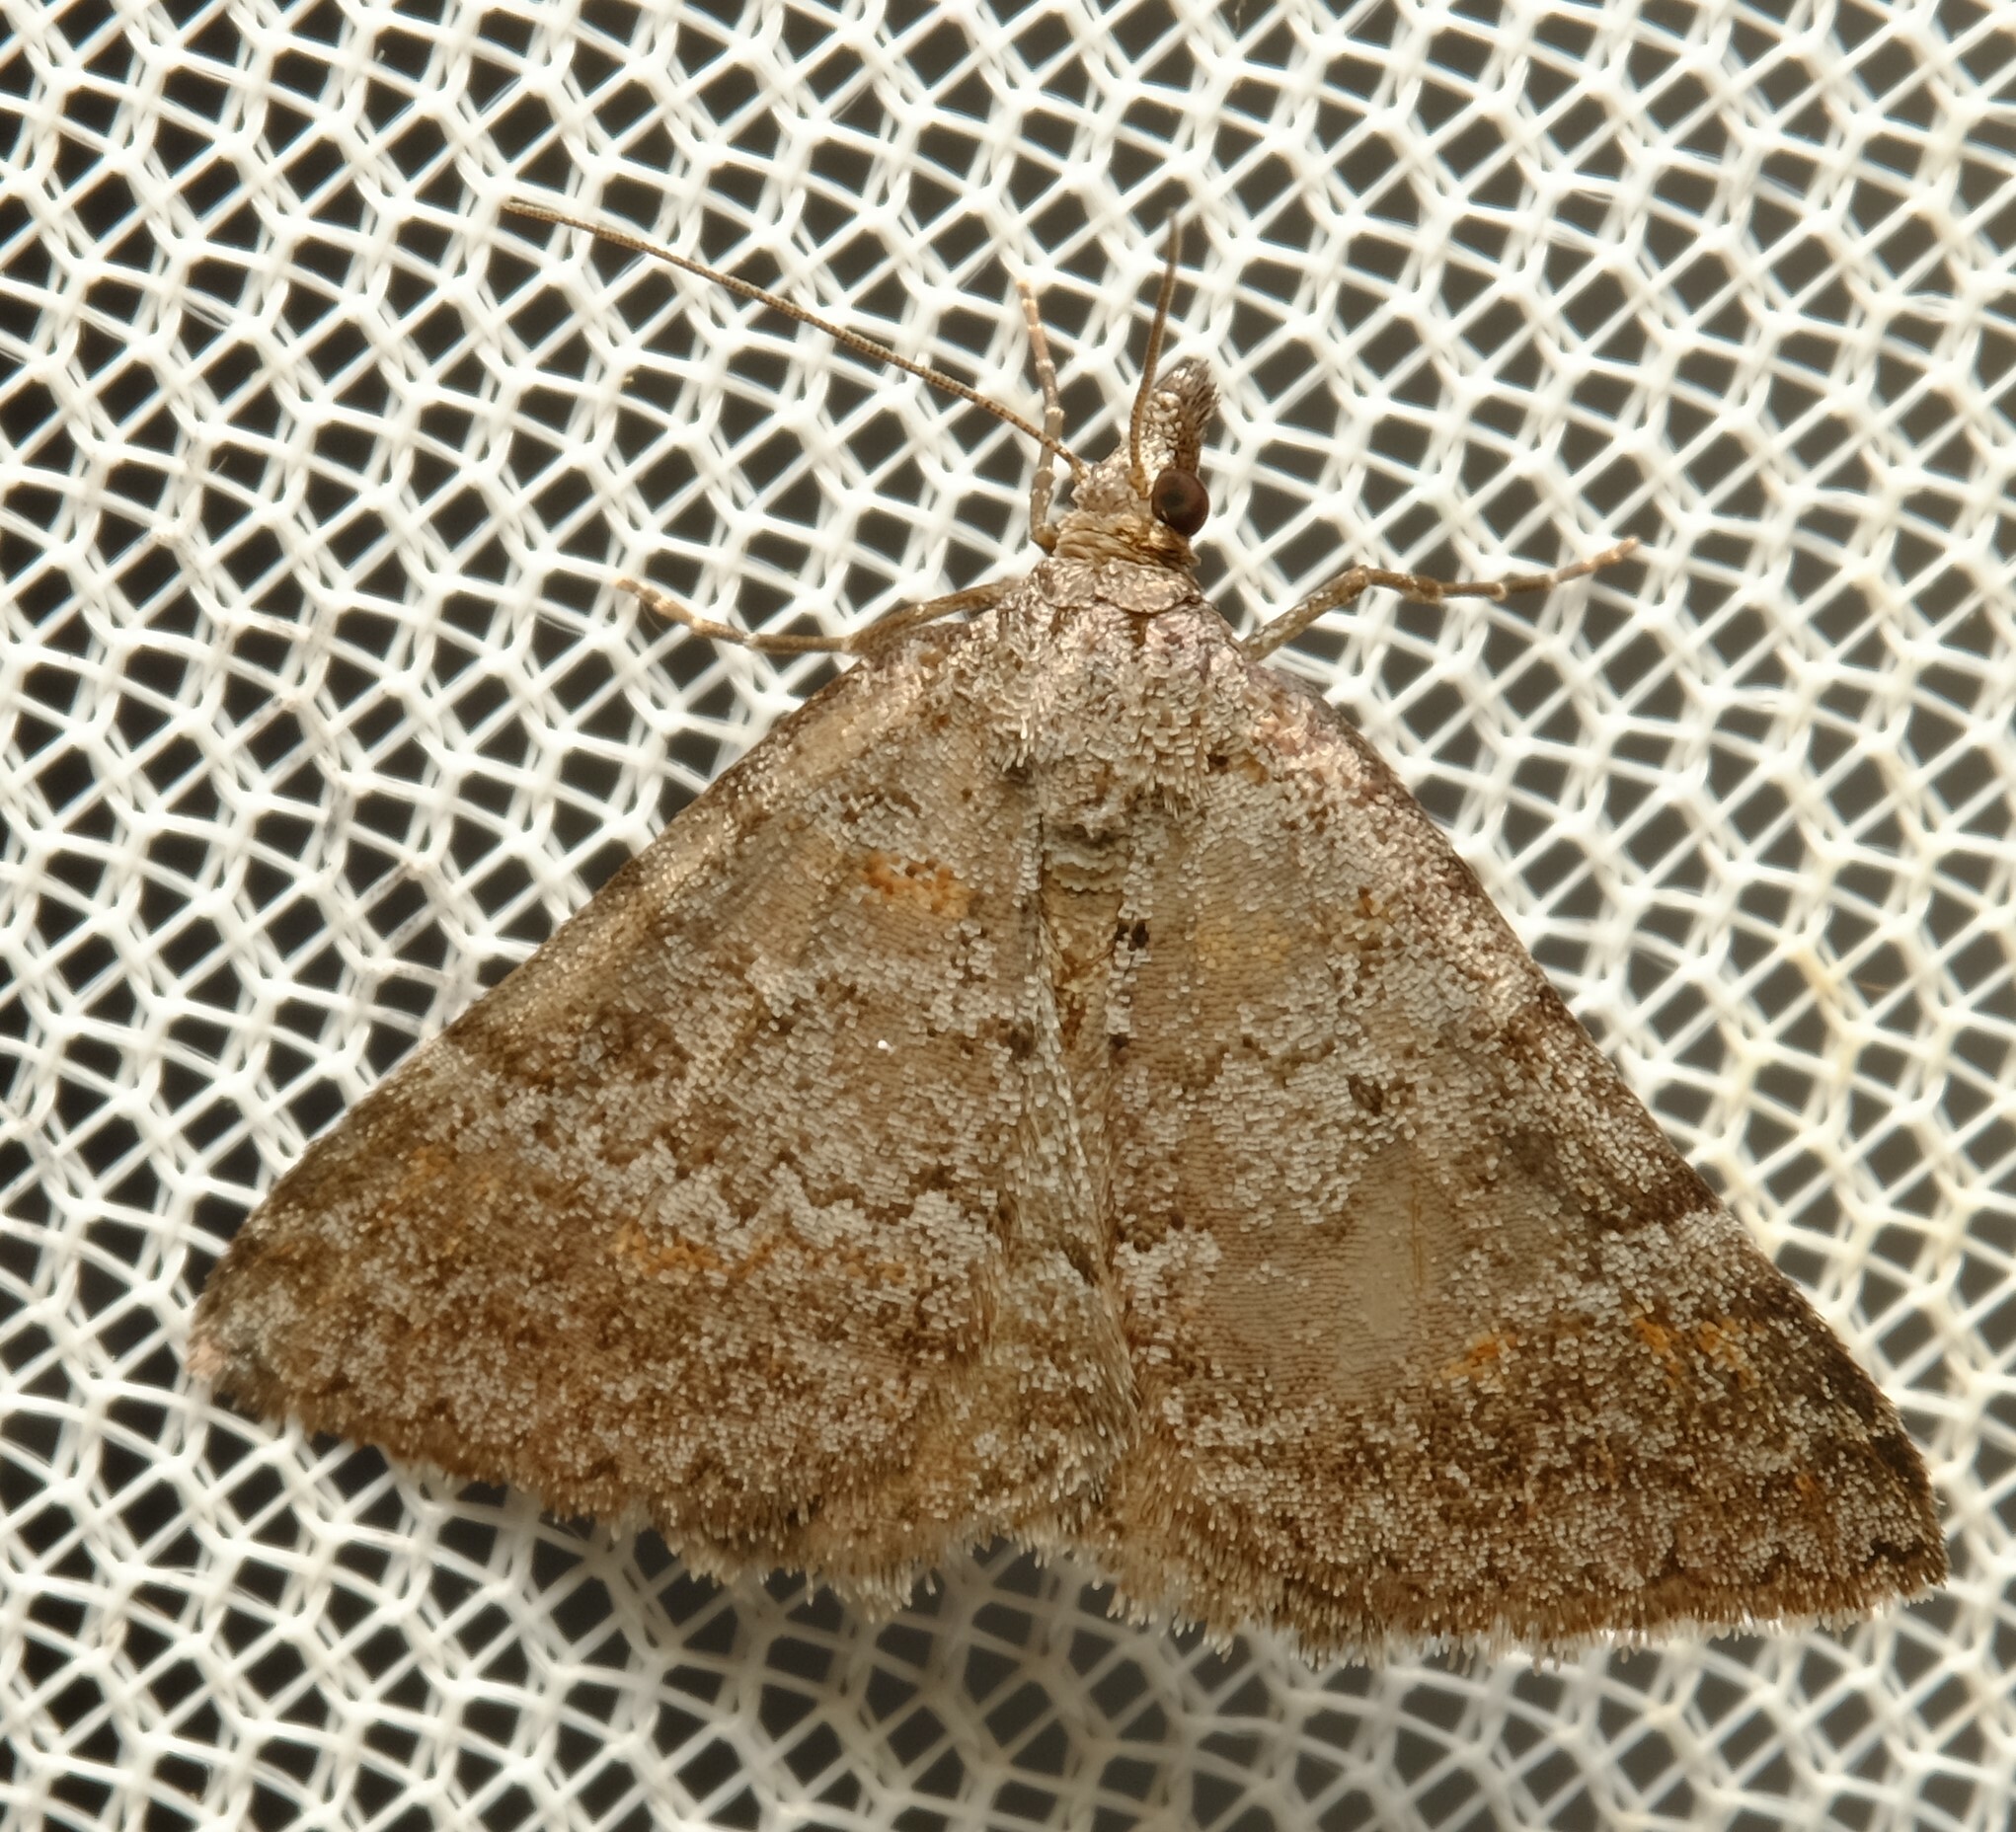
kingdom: Animalia
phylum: Arthropoda
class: Insecta
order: Lepidoptera
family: Geometridae
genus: Dichromodes
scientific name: Dichromodes obtusata
